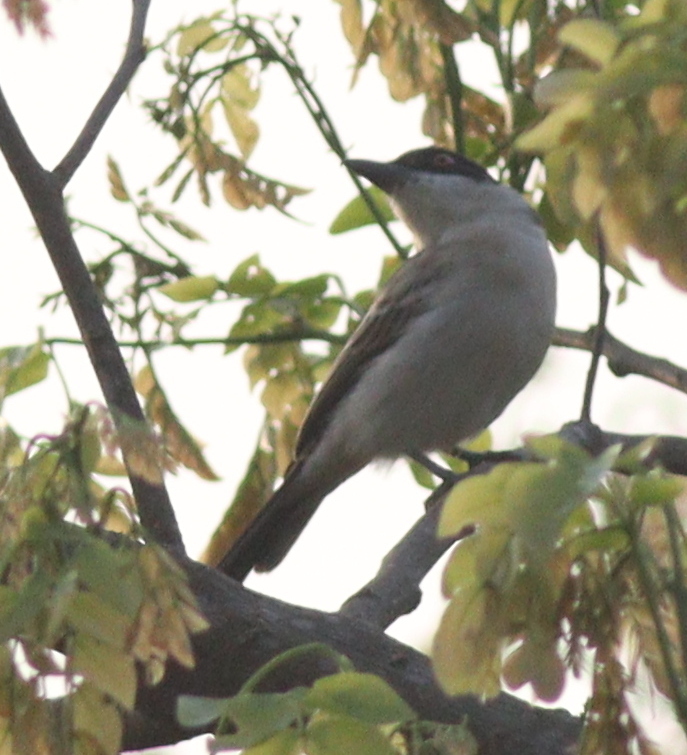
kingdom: Animalia
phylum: Chordata
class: Aves
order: Passeriformes
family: Malaconotidae
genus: Dryoscopus
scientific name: Dryoscopus gambensis
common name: Northern puffback
